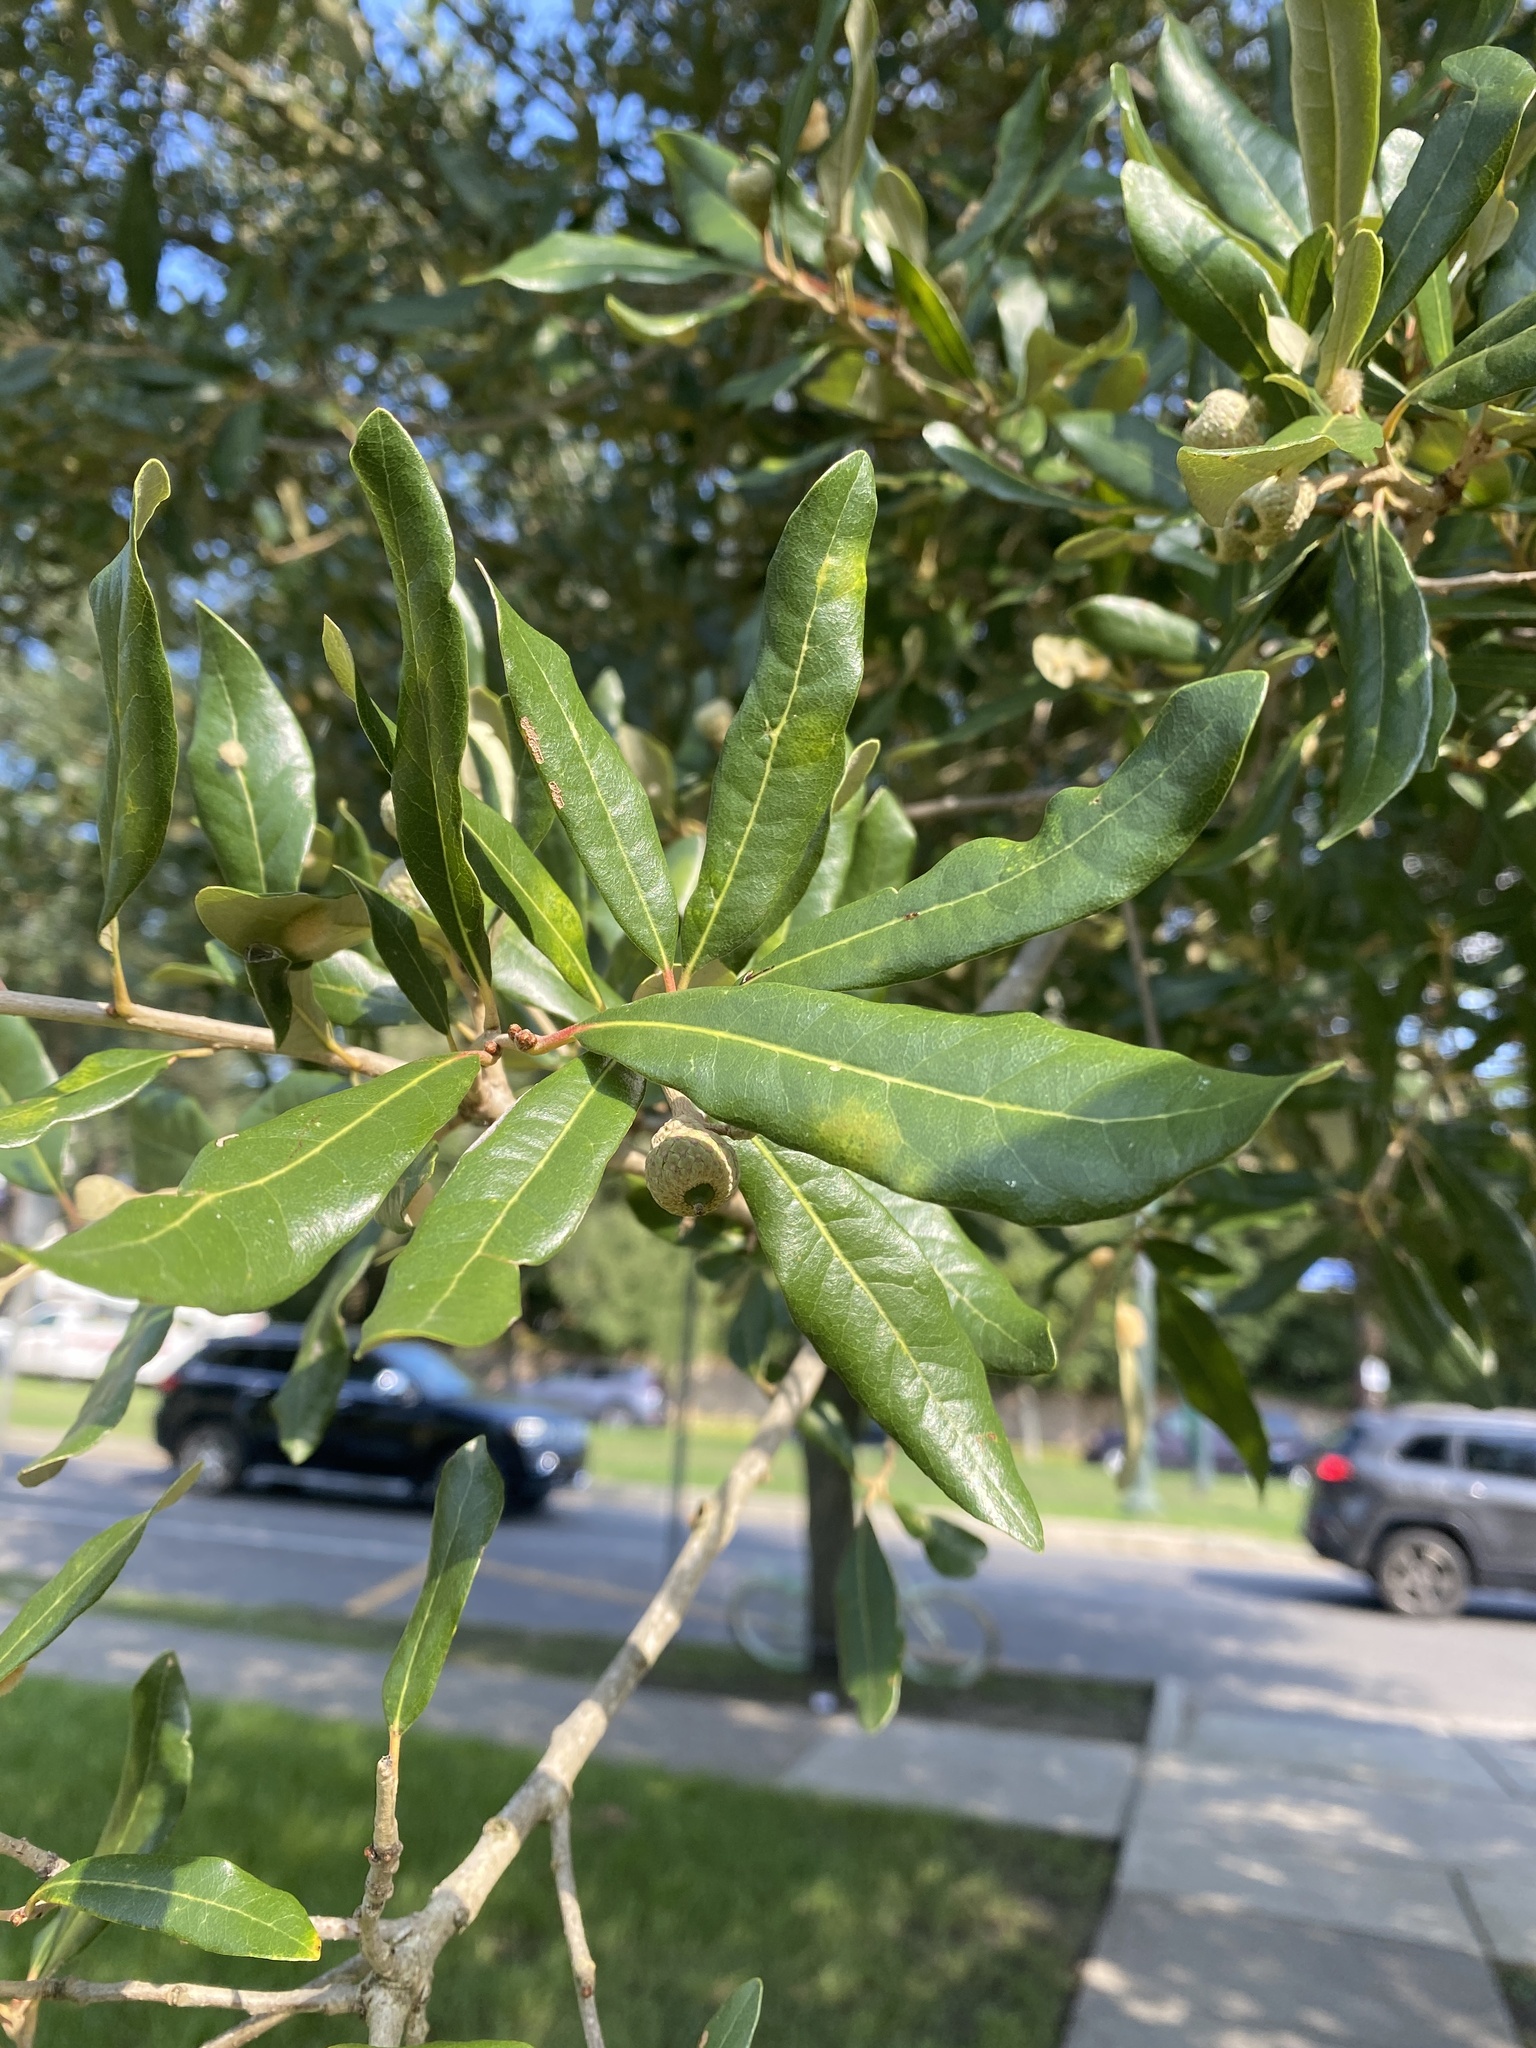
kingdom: Plantae
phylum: Tracheophyta
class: Magnoliopsida
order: Fagales
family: Fagaceae
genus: Quercus
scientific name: Quercus virginiana
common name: Southern live oak
